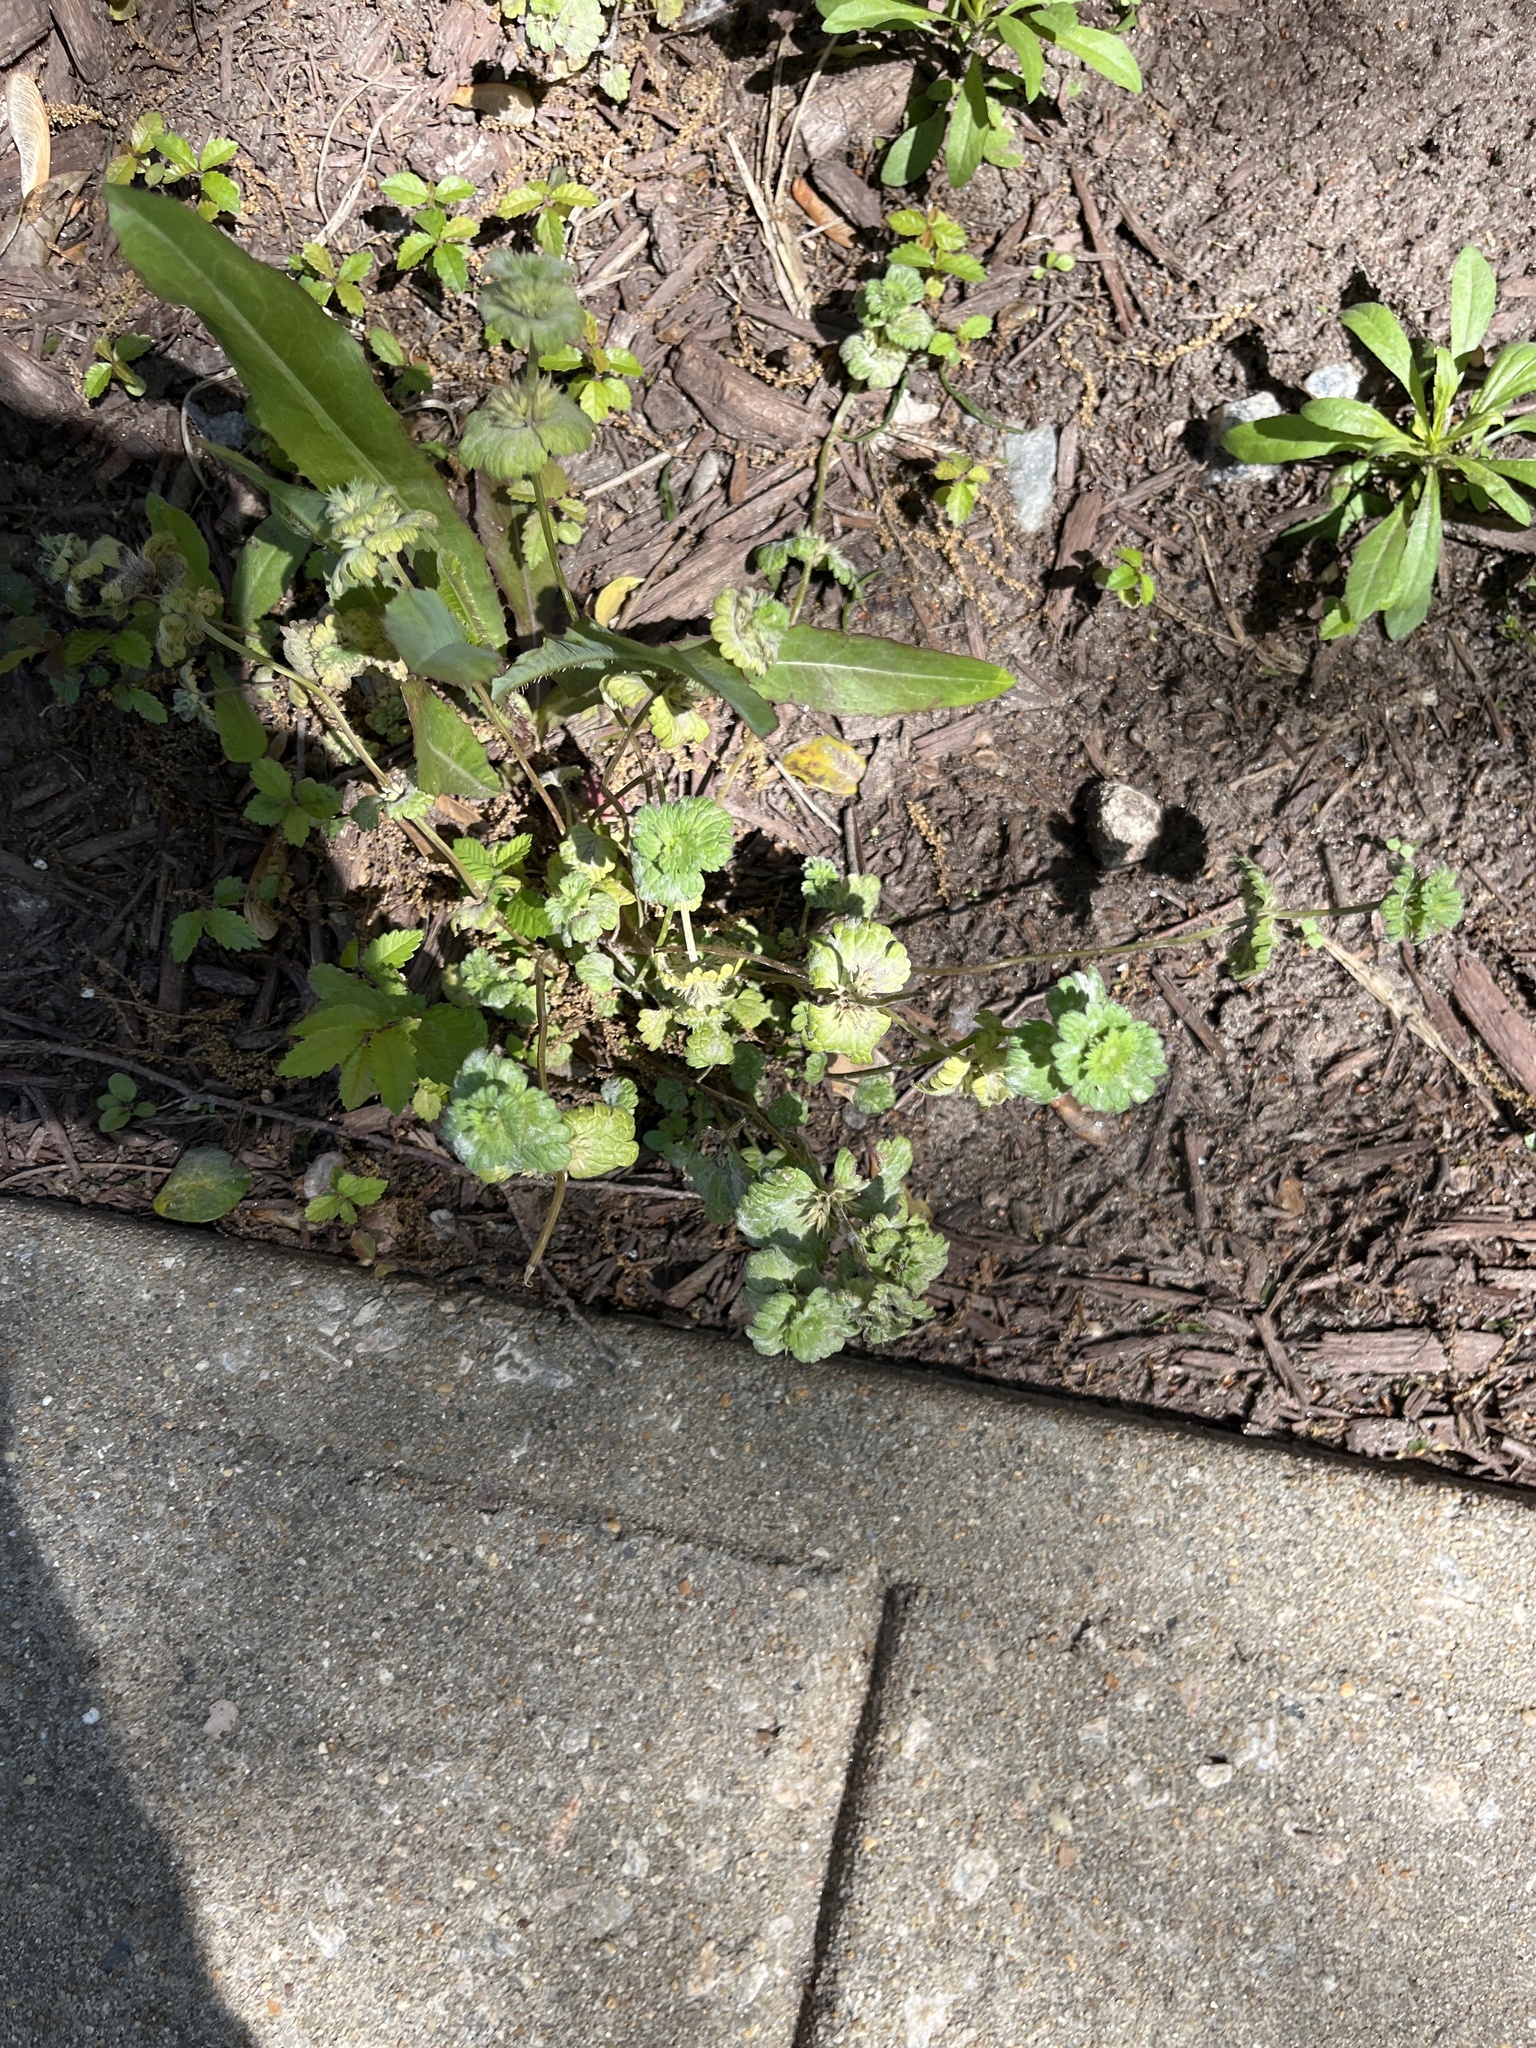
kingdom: Plantae
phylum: Tracheophyta
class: Magnoliopsida
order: Lamiales
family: Lamiaceae
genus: Lamium
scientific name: Lamium amplexicaule
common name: Henbit dead-nettle
